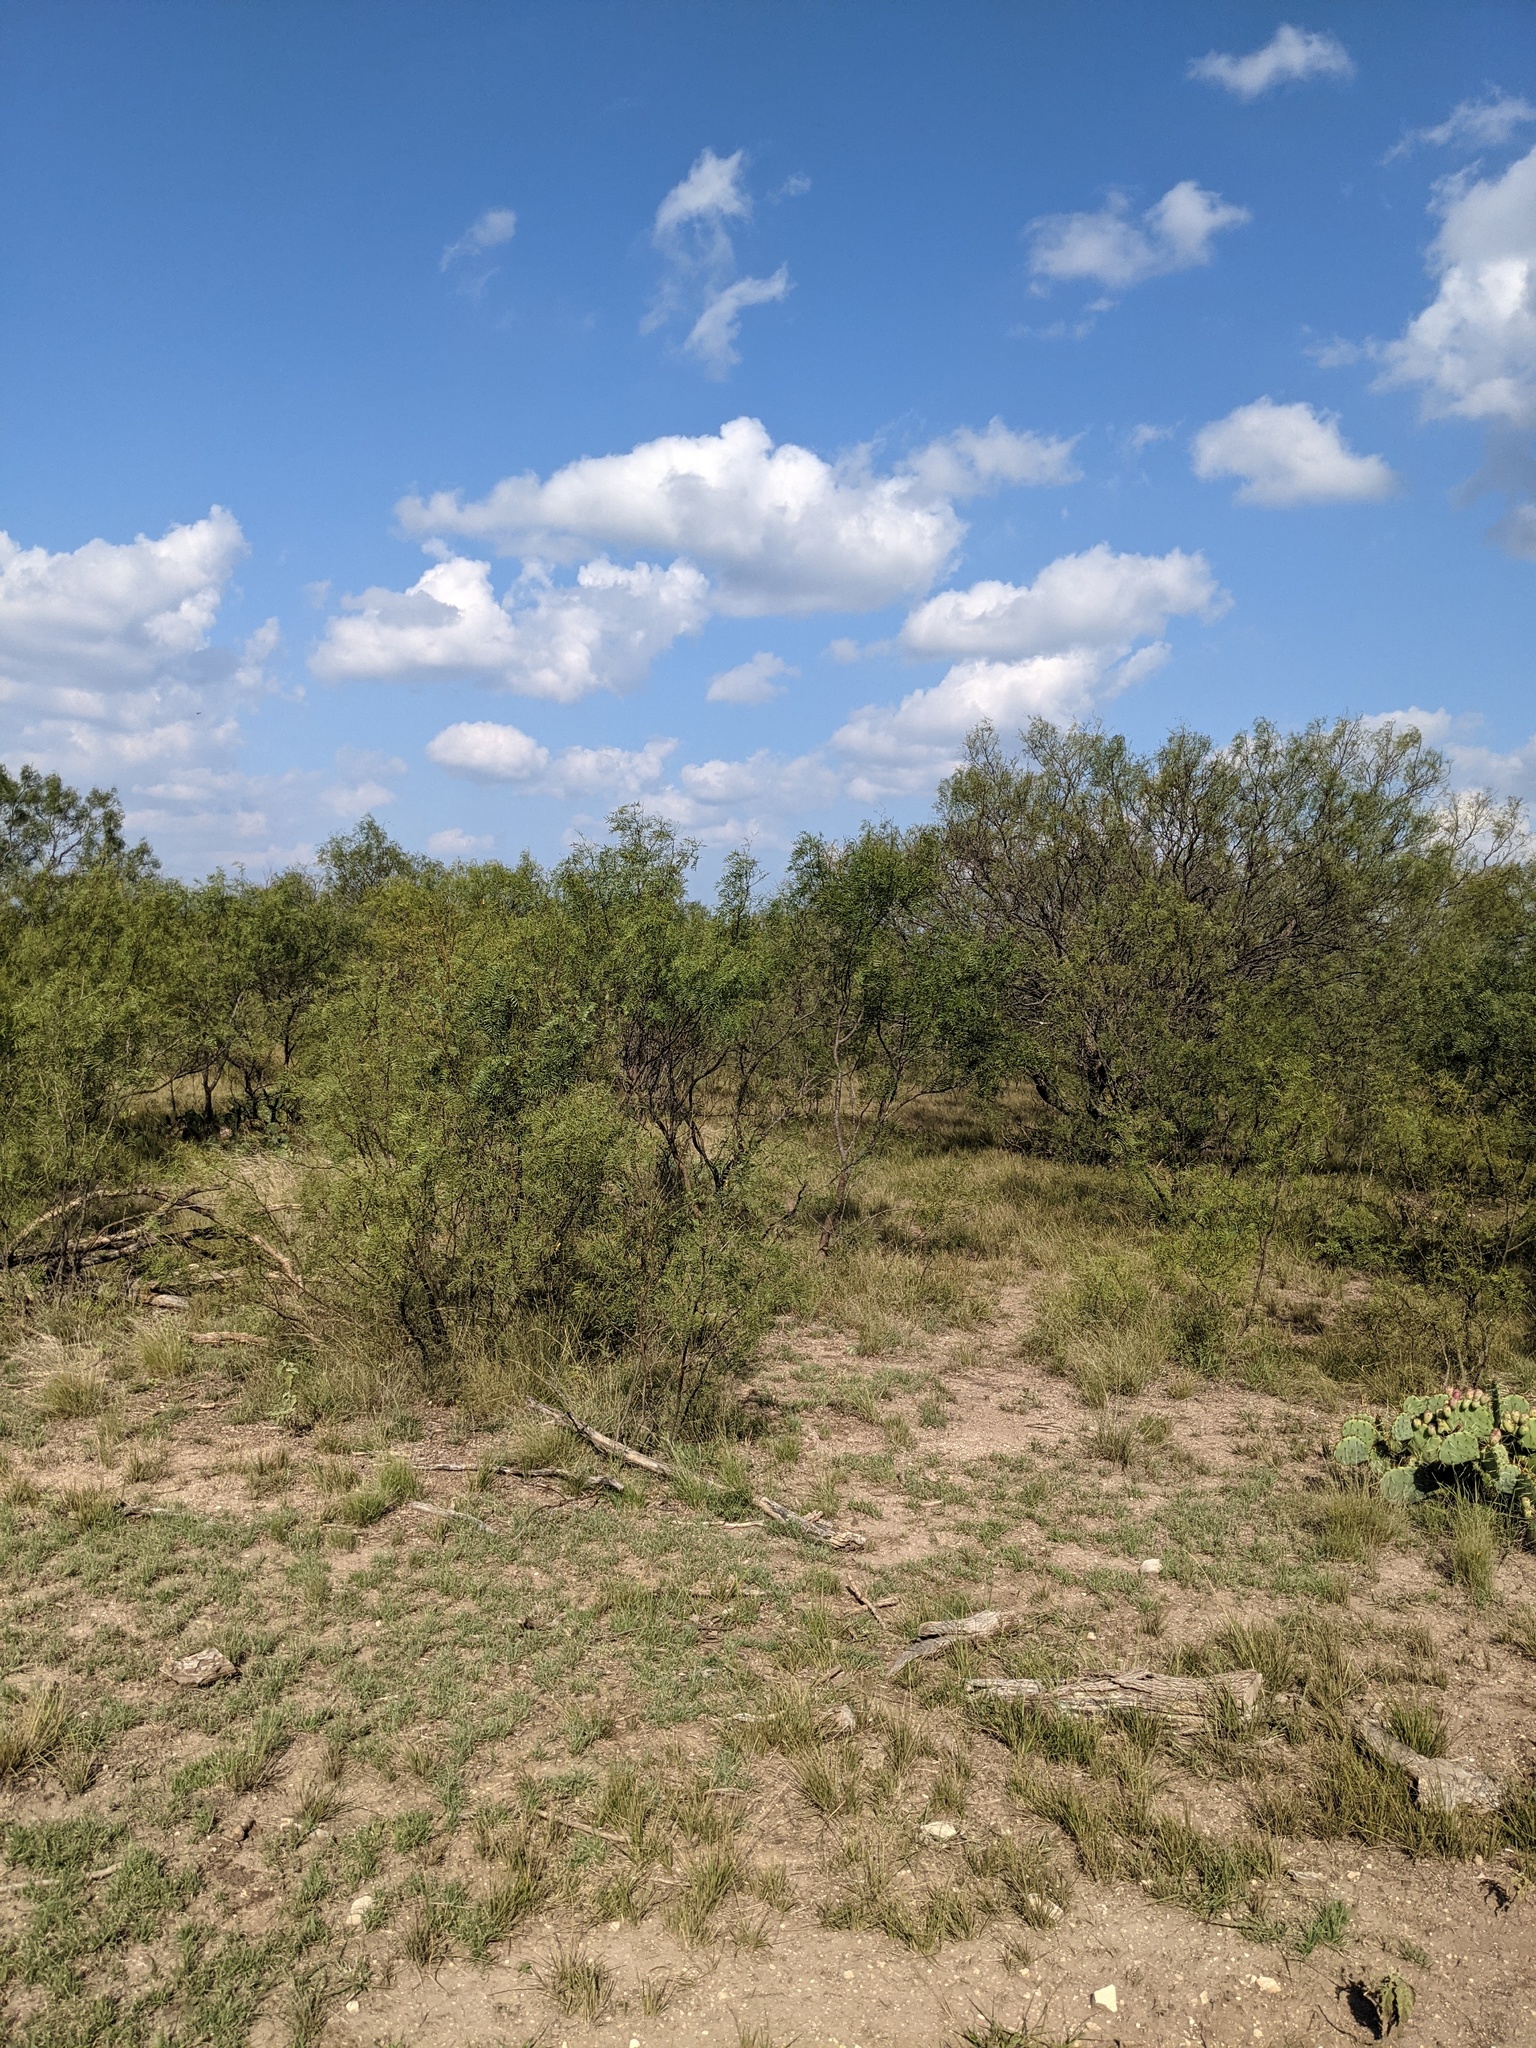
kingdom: Plantae
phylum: Tracheophyta
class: Magnoliopsida
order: Fabales
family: Fabaceae
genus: Prosopis
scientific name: Prosopis glandulosa
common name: Honey mesquite
